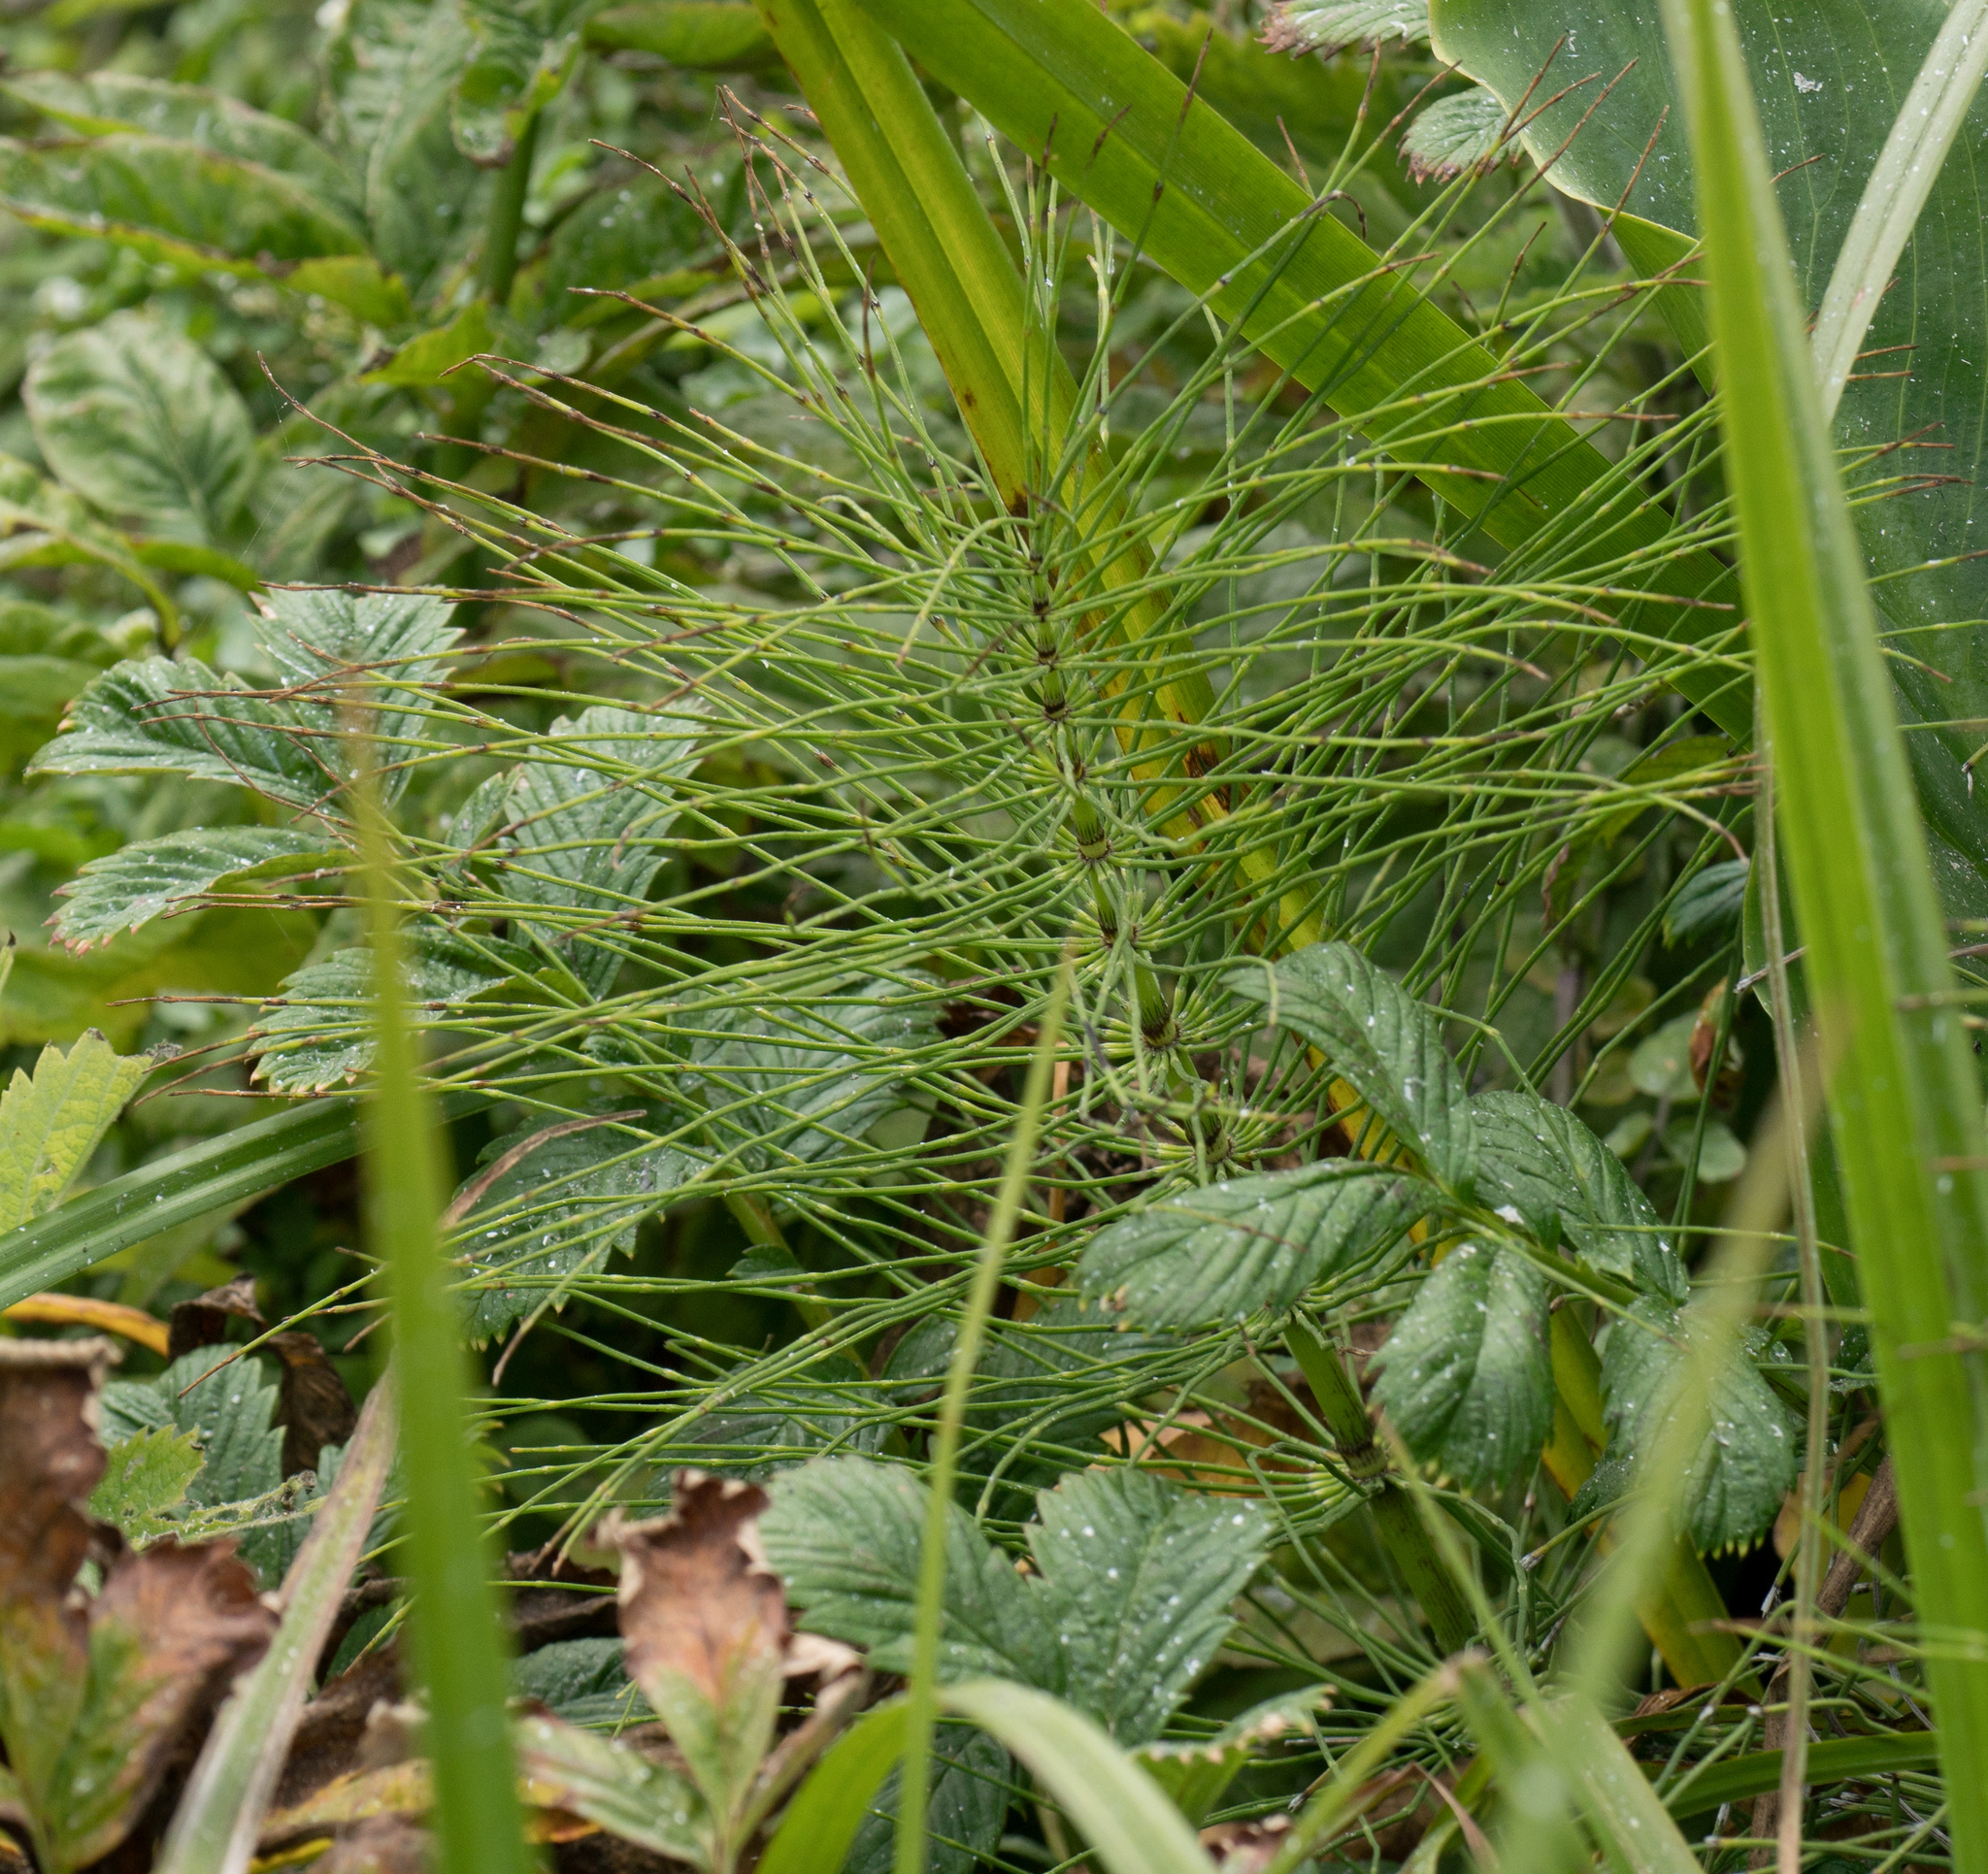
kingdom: Plantae
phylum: Tracheophyta
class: Polypodiopsida
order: Equisetales
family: Equisetaceae
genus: Equisetum
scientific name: Equisetum braunii
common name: Braun's horsetail
